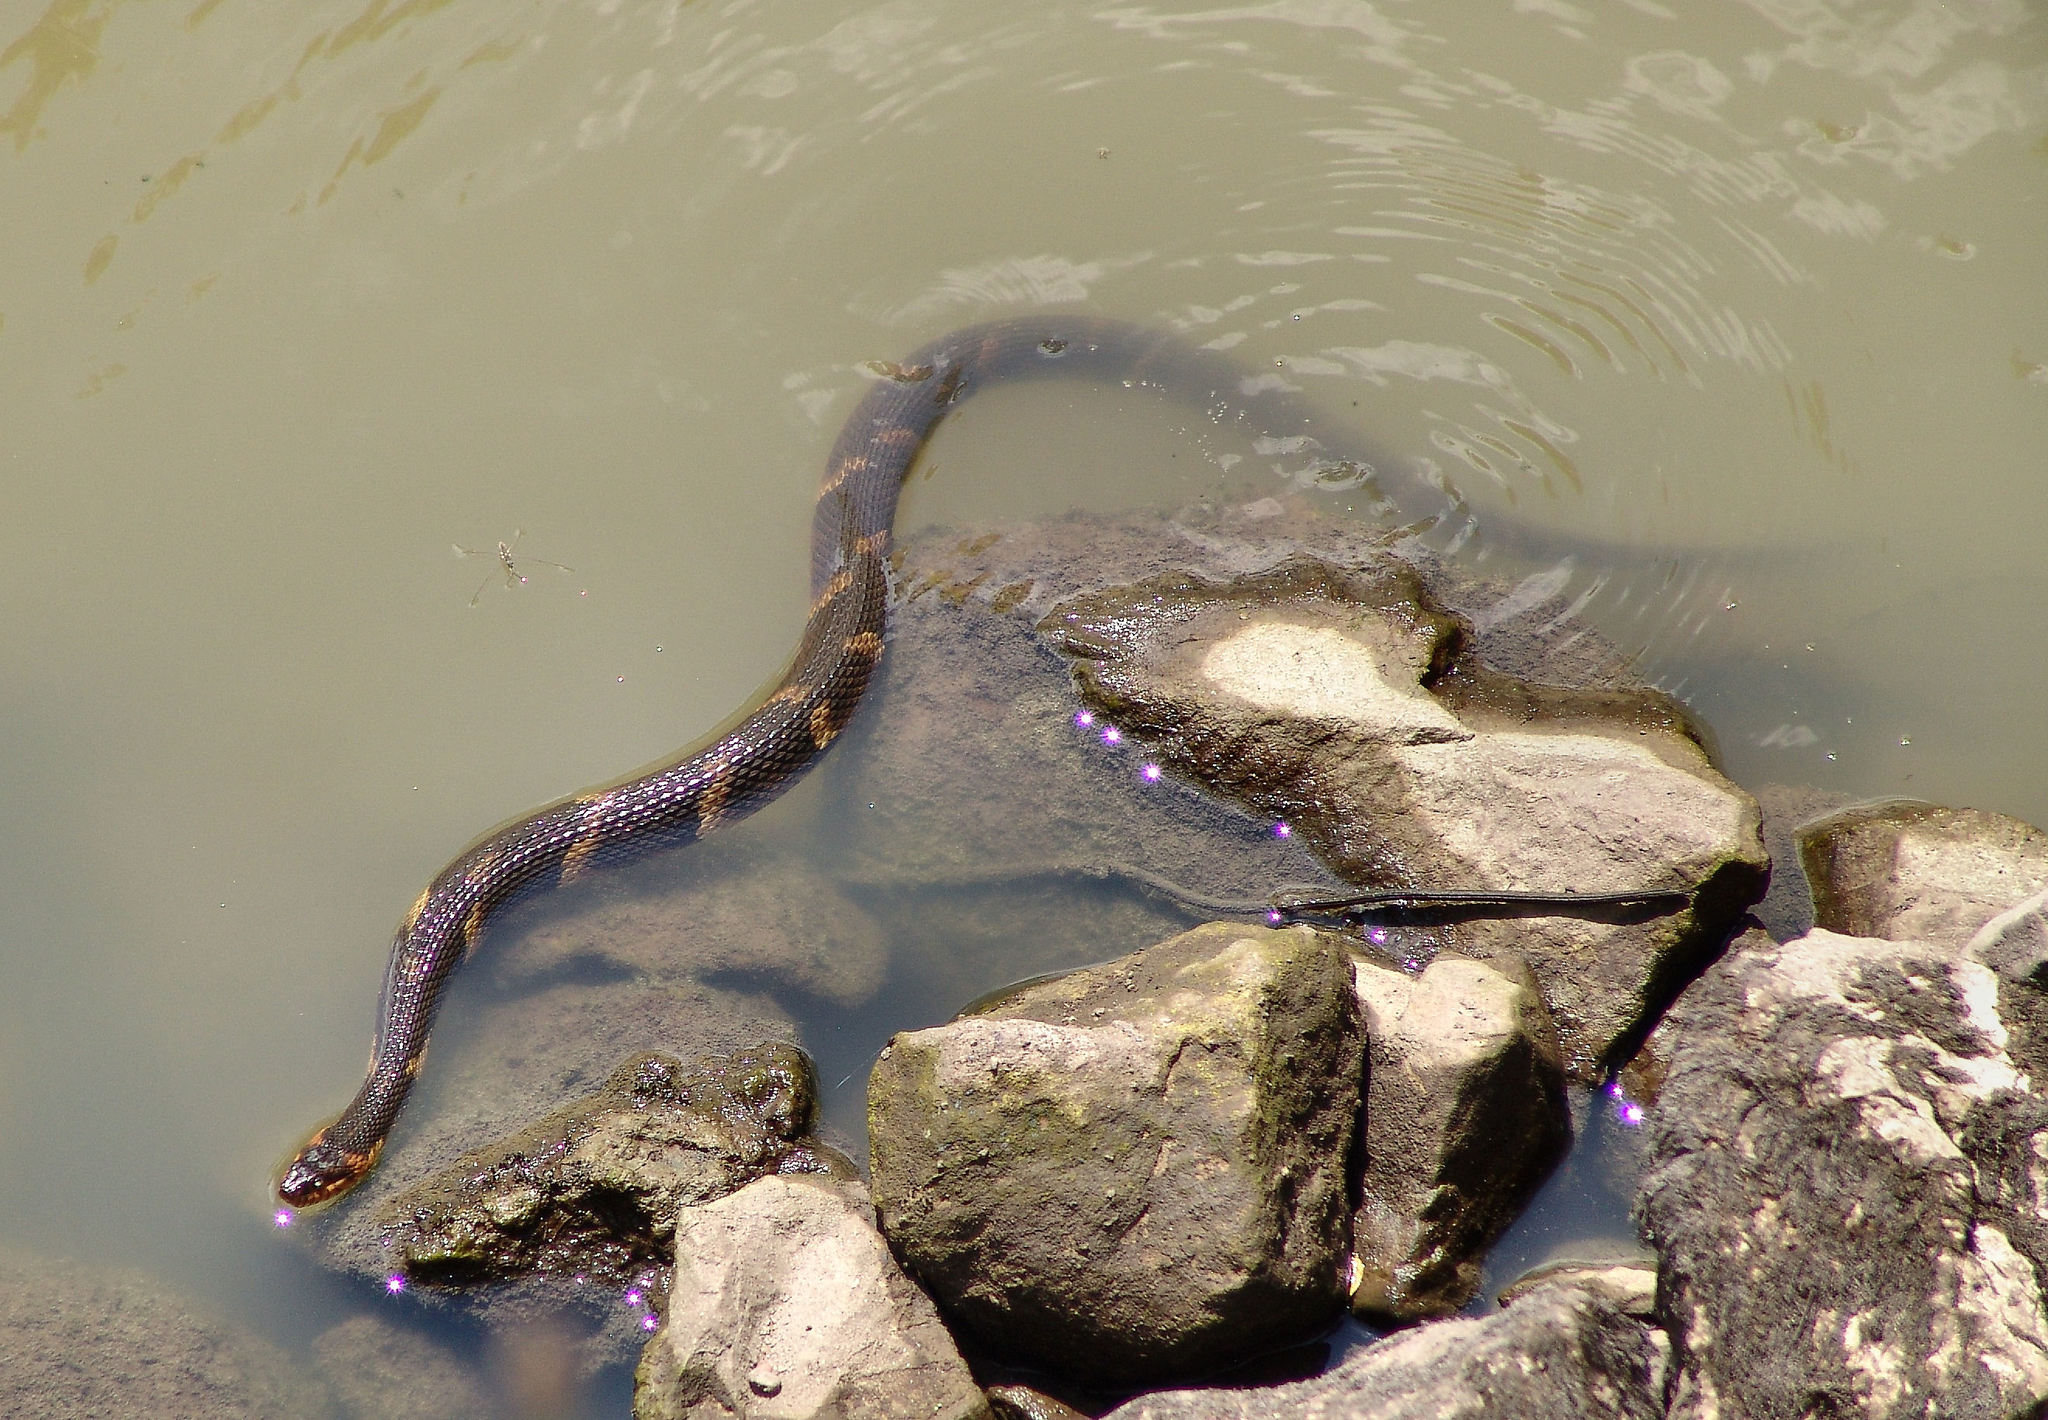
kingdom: Animalia
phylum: Chordata
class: Squamata
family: Colubridae
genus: Nerodia
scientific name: Nerodia fasciata
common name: Southern water snake
